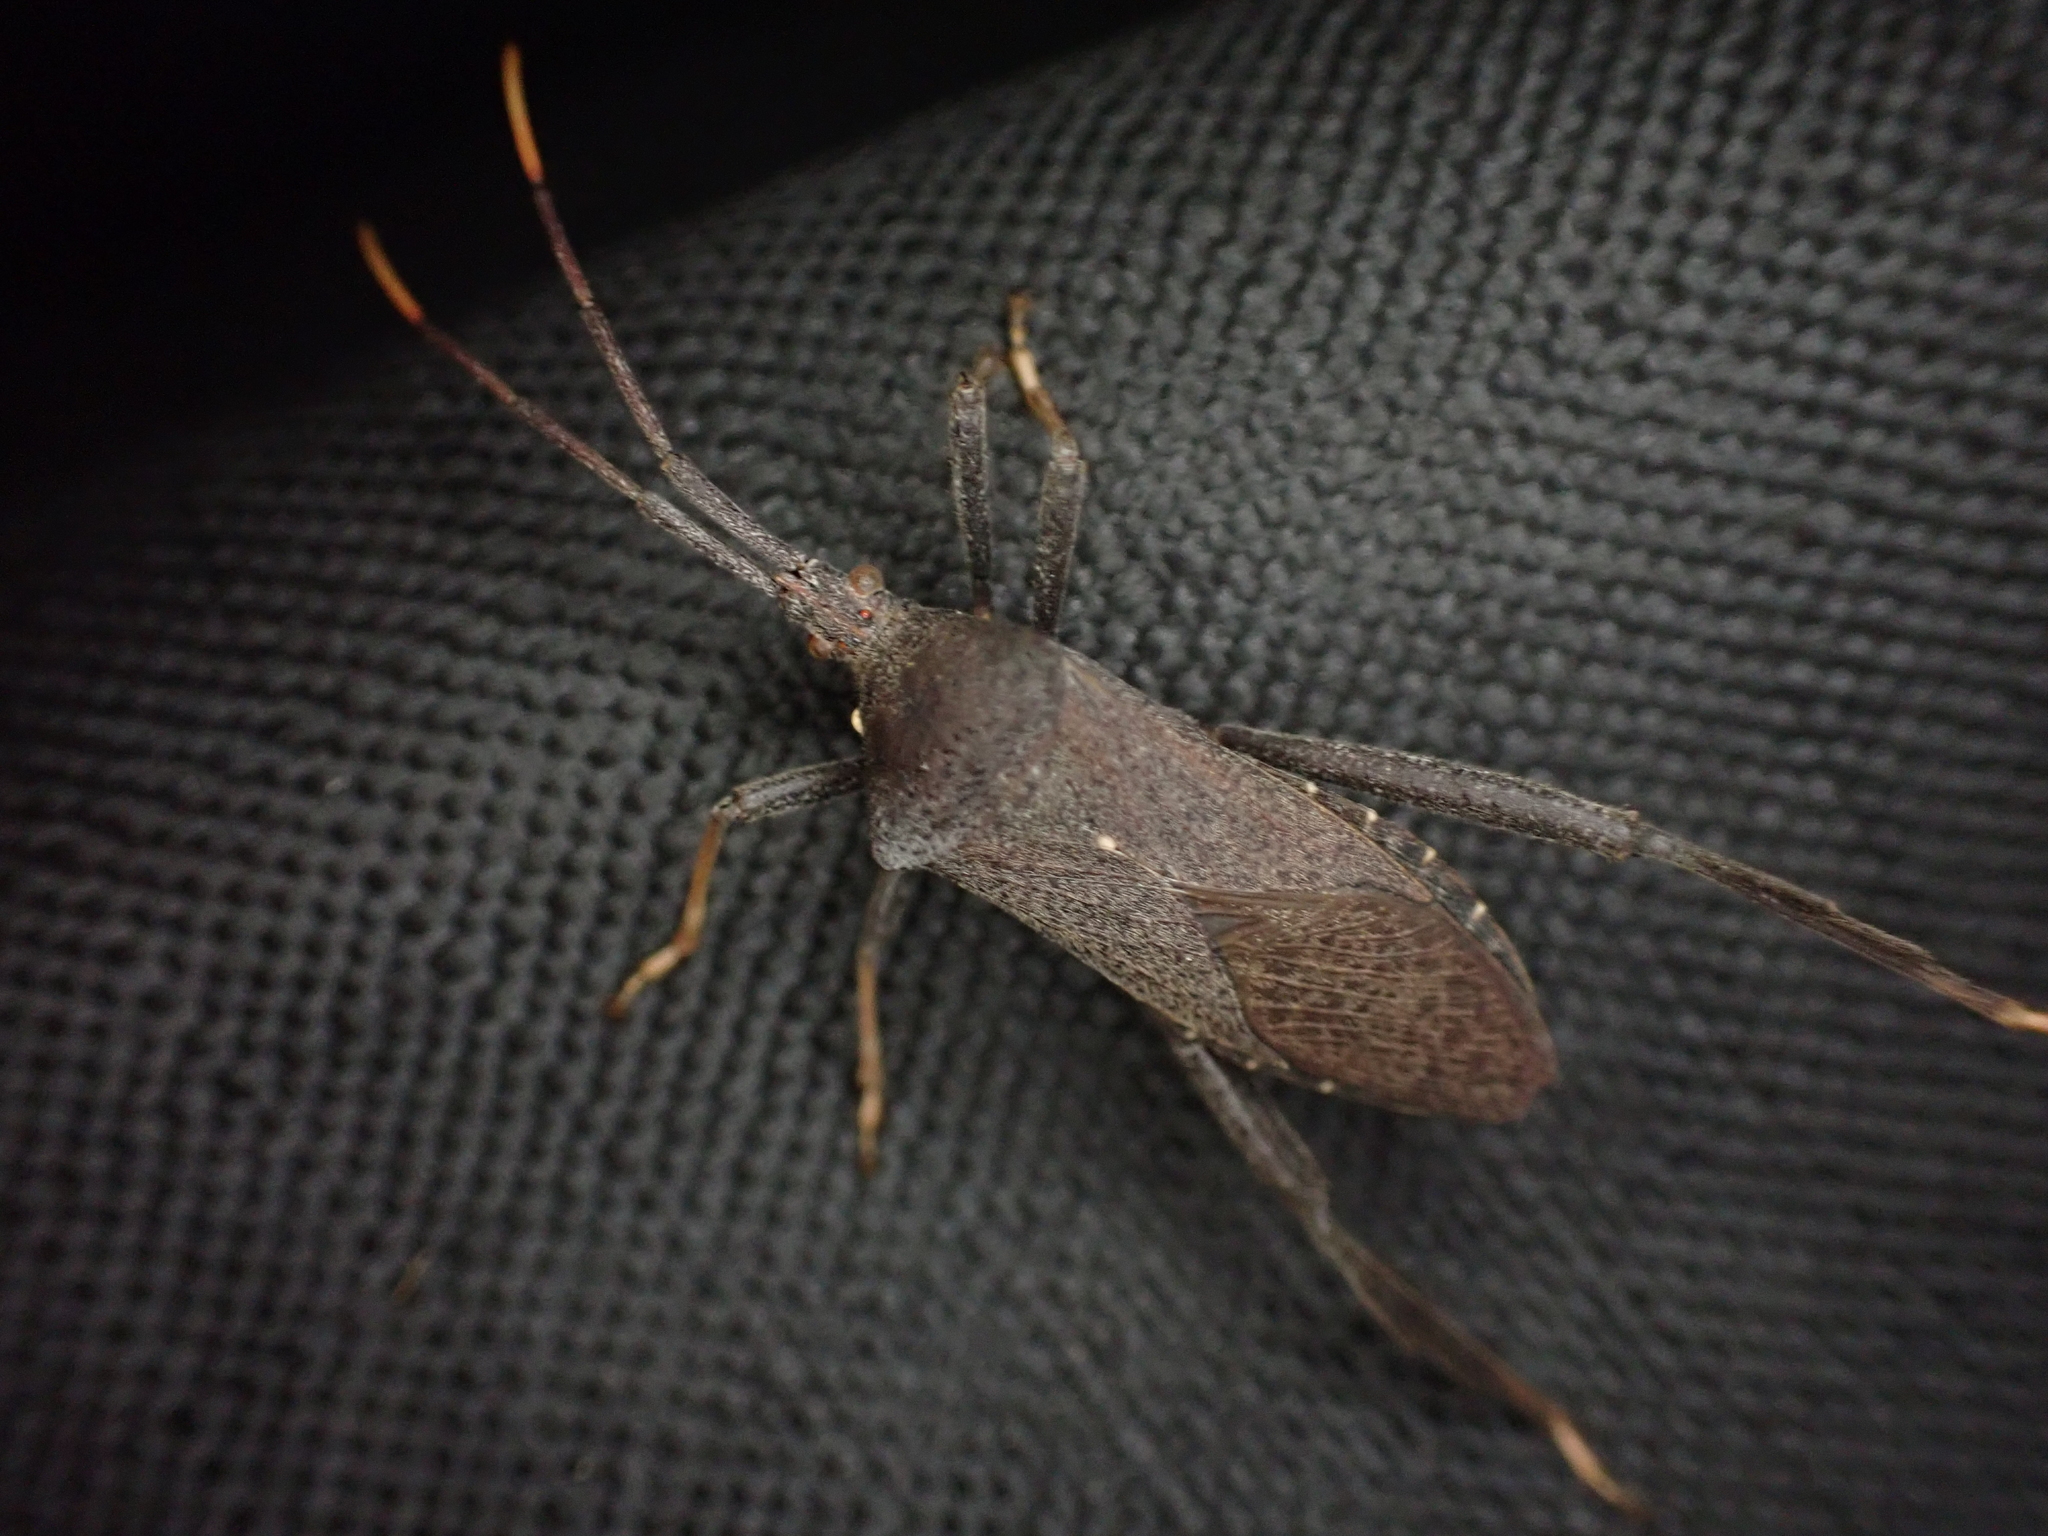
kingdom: Animalia
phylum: Arthropoda
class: Insecta
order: Hemiptera
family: Coreidae
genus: Acanthocephala
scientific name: Acanthocephala terminalis
